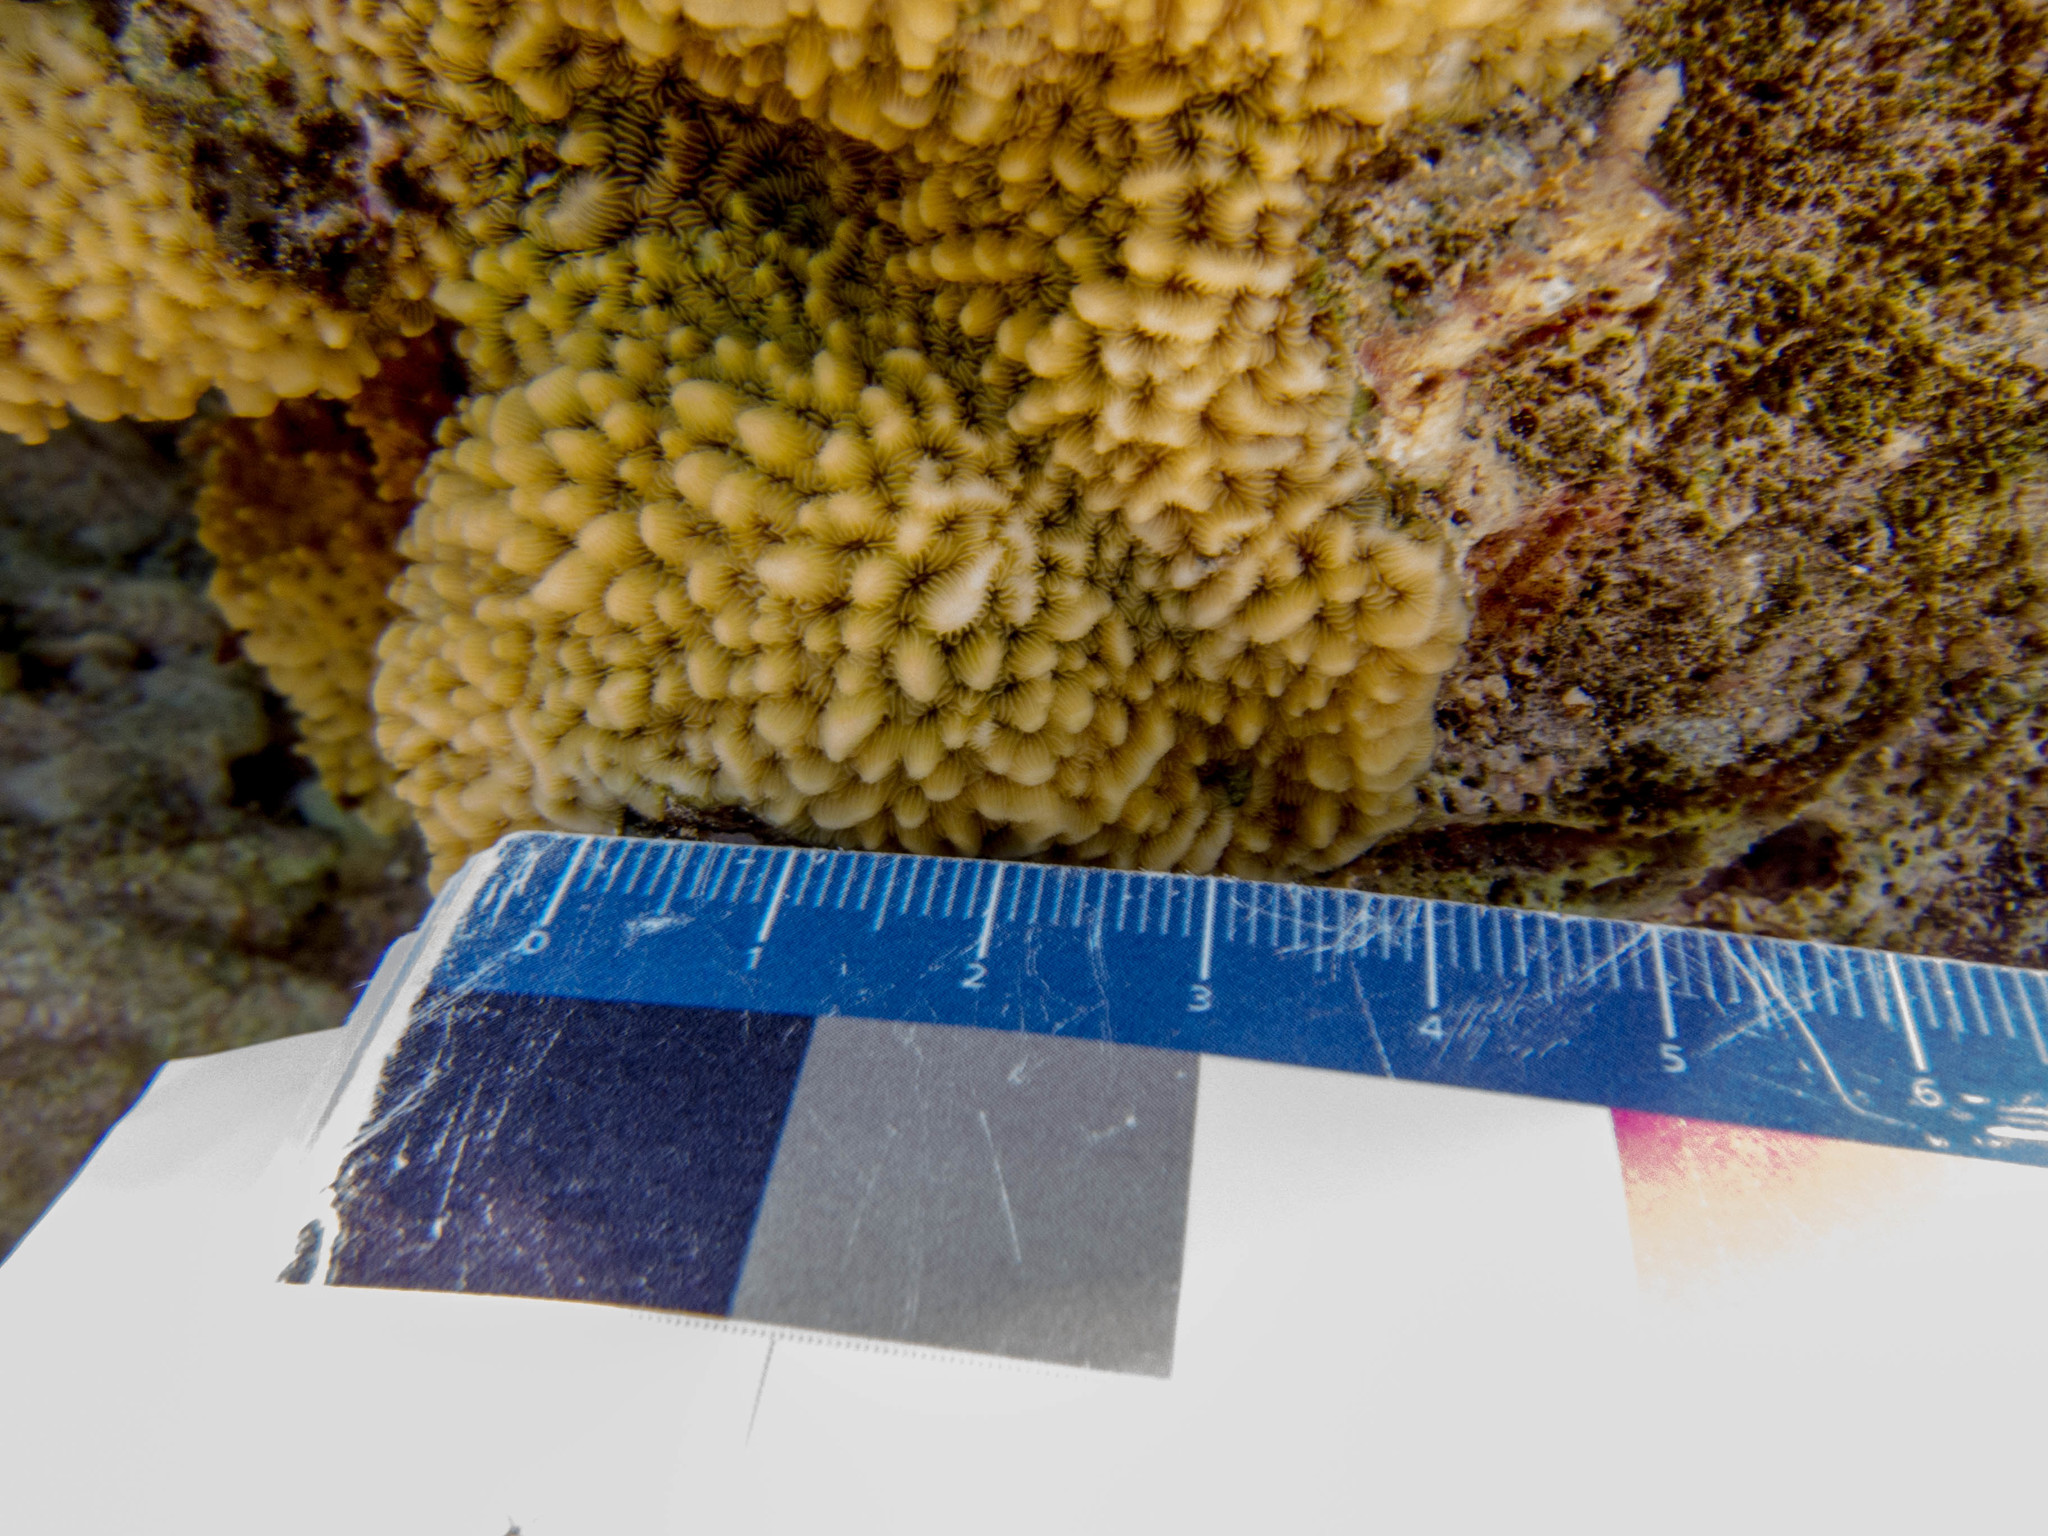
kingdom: Animalia
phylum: Cnidaria
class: Anthozoa
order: Scleractinia
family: Agariciidae
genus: Pavona
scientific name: Pavona varians
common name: Leaf coral
